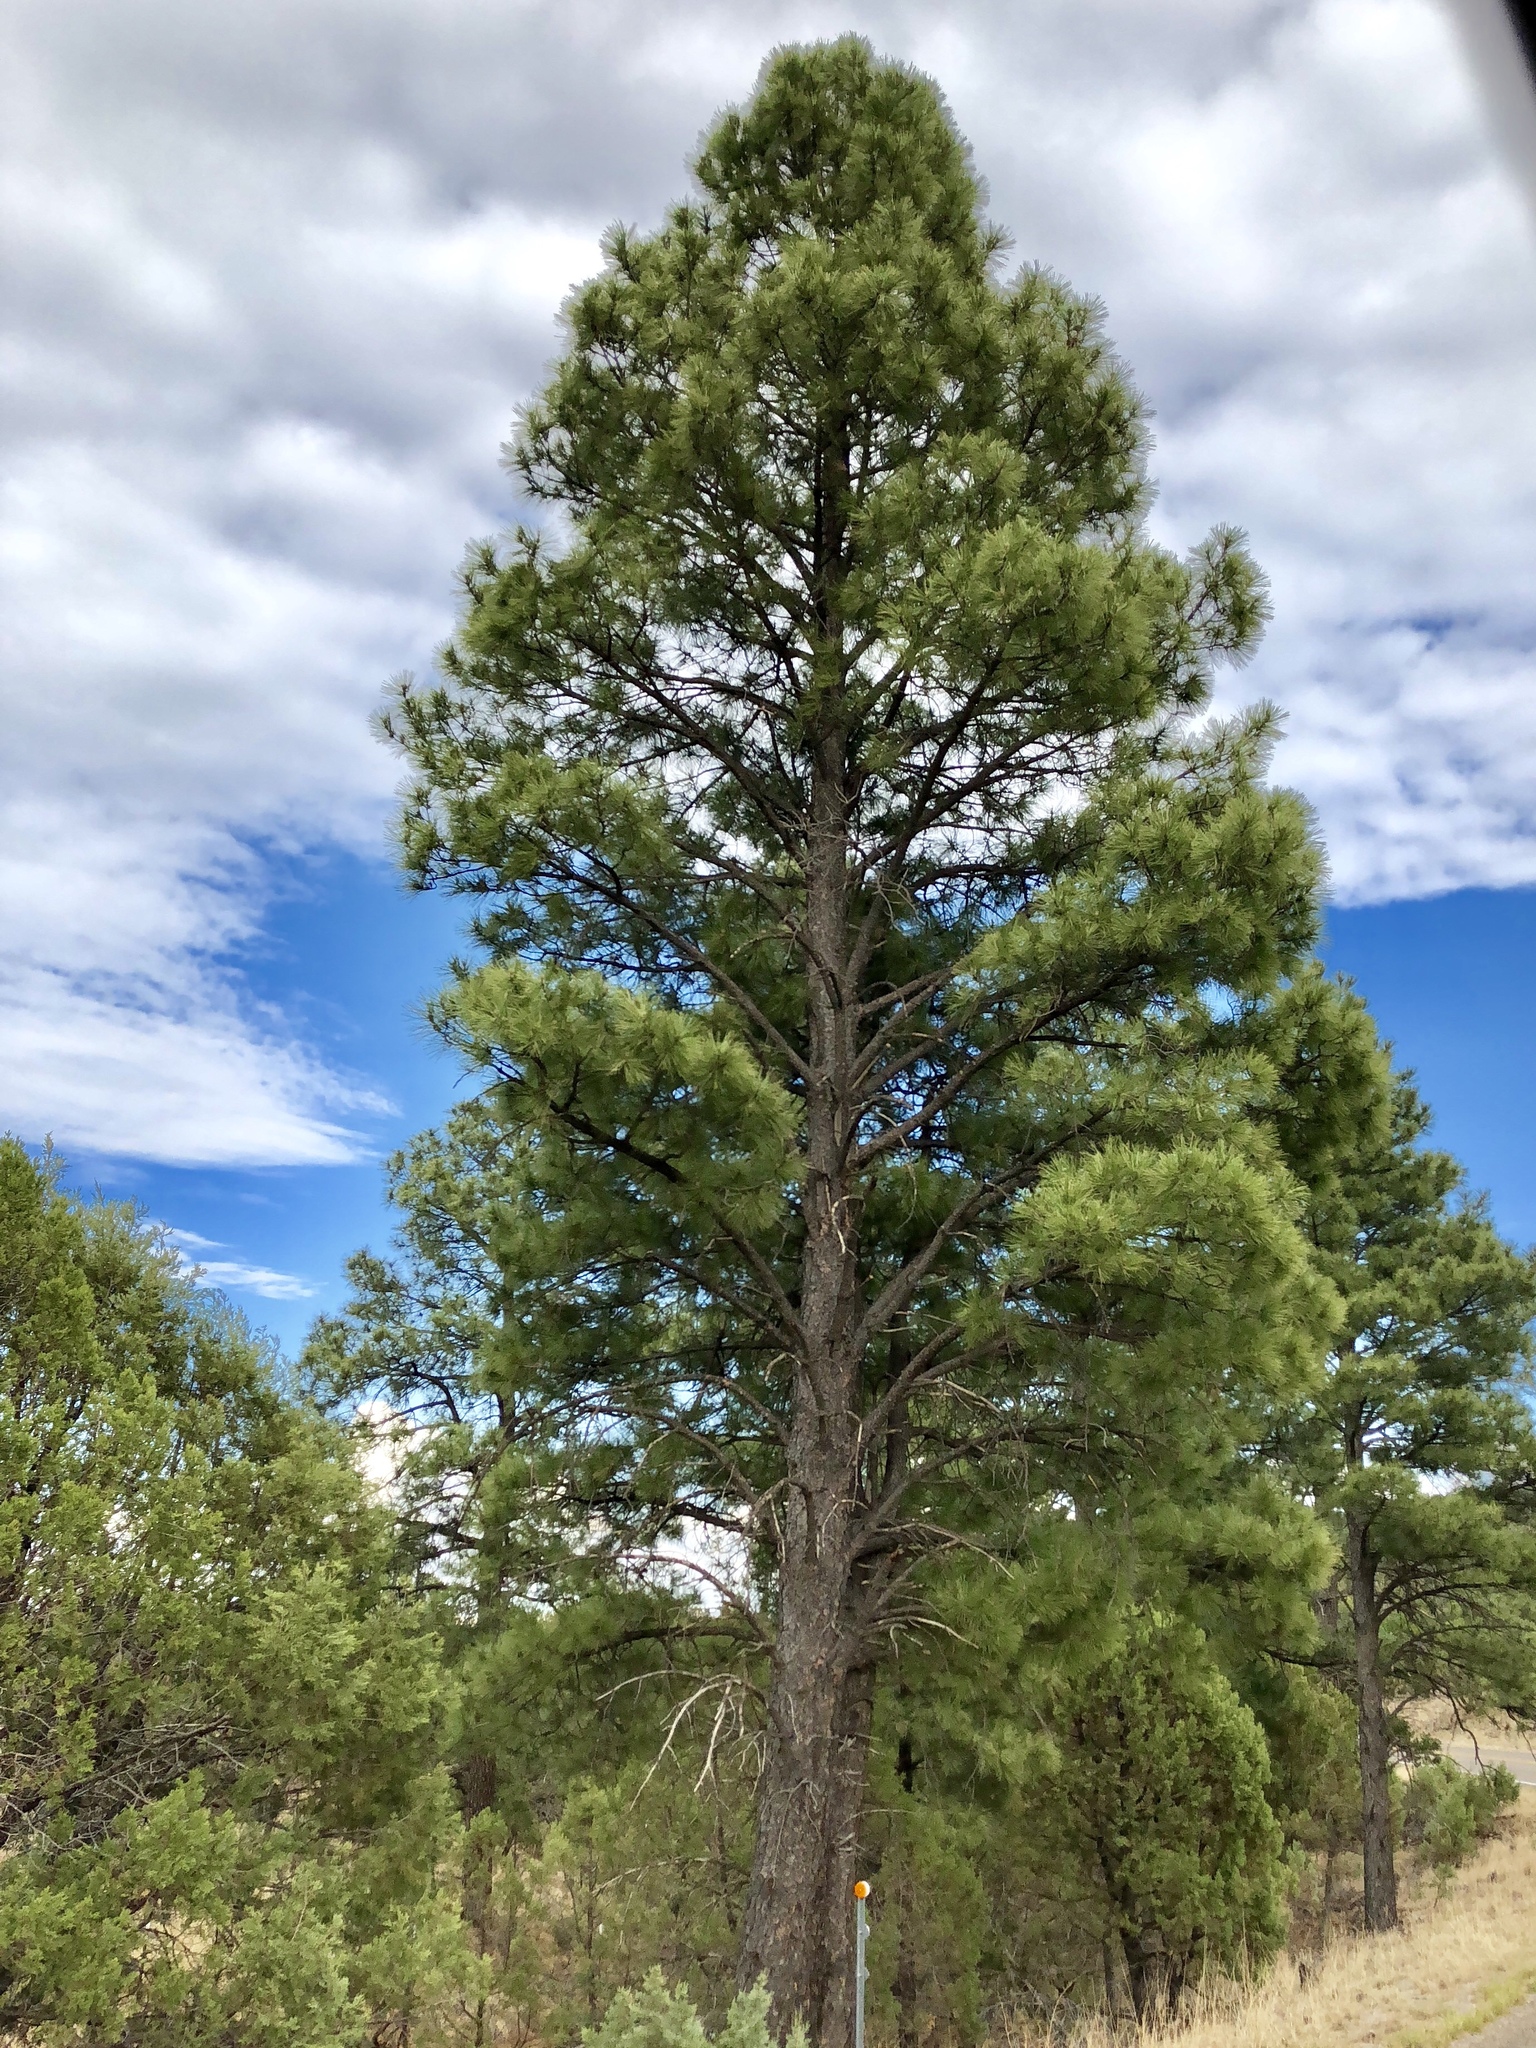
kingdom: Plantae
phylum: Tracheophyta
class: Pinopsida
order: Pinales
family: Pinaceae
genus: Pinus
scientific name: Pinus ponderosa
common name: Western yellow-pine
